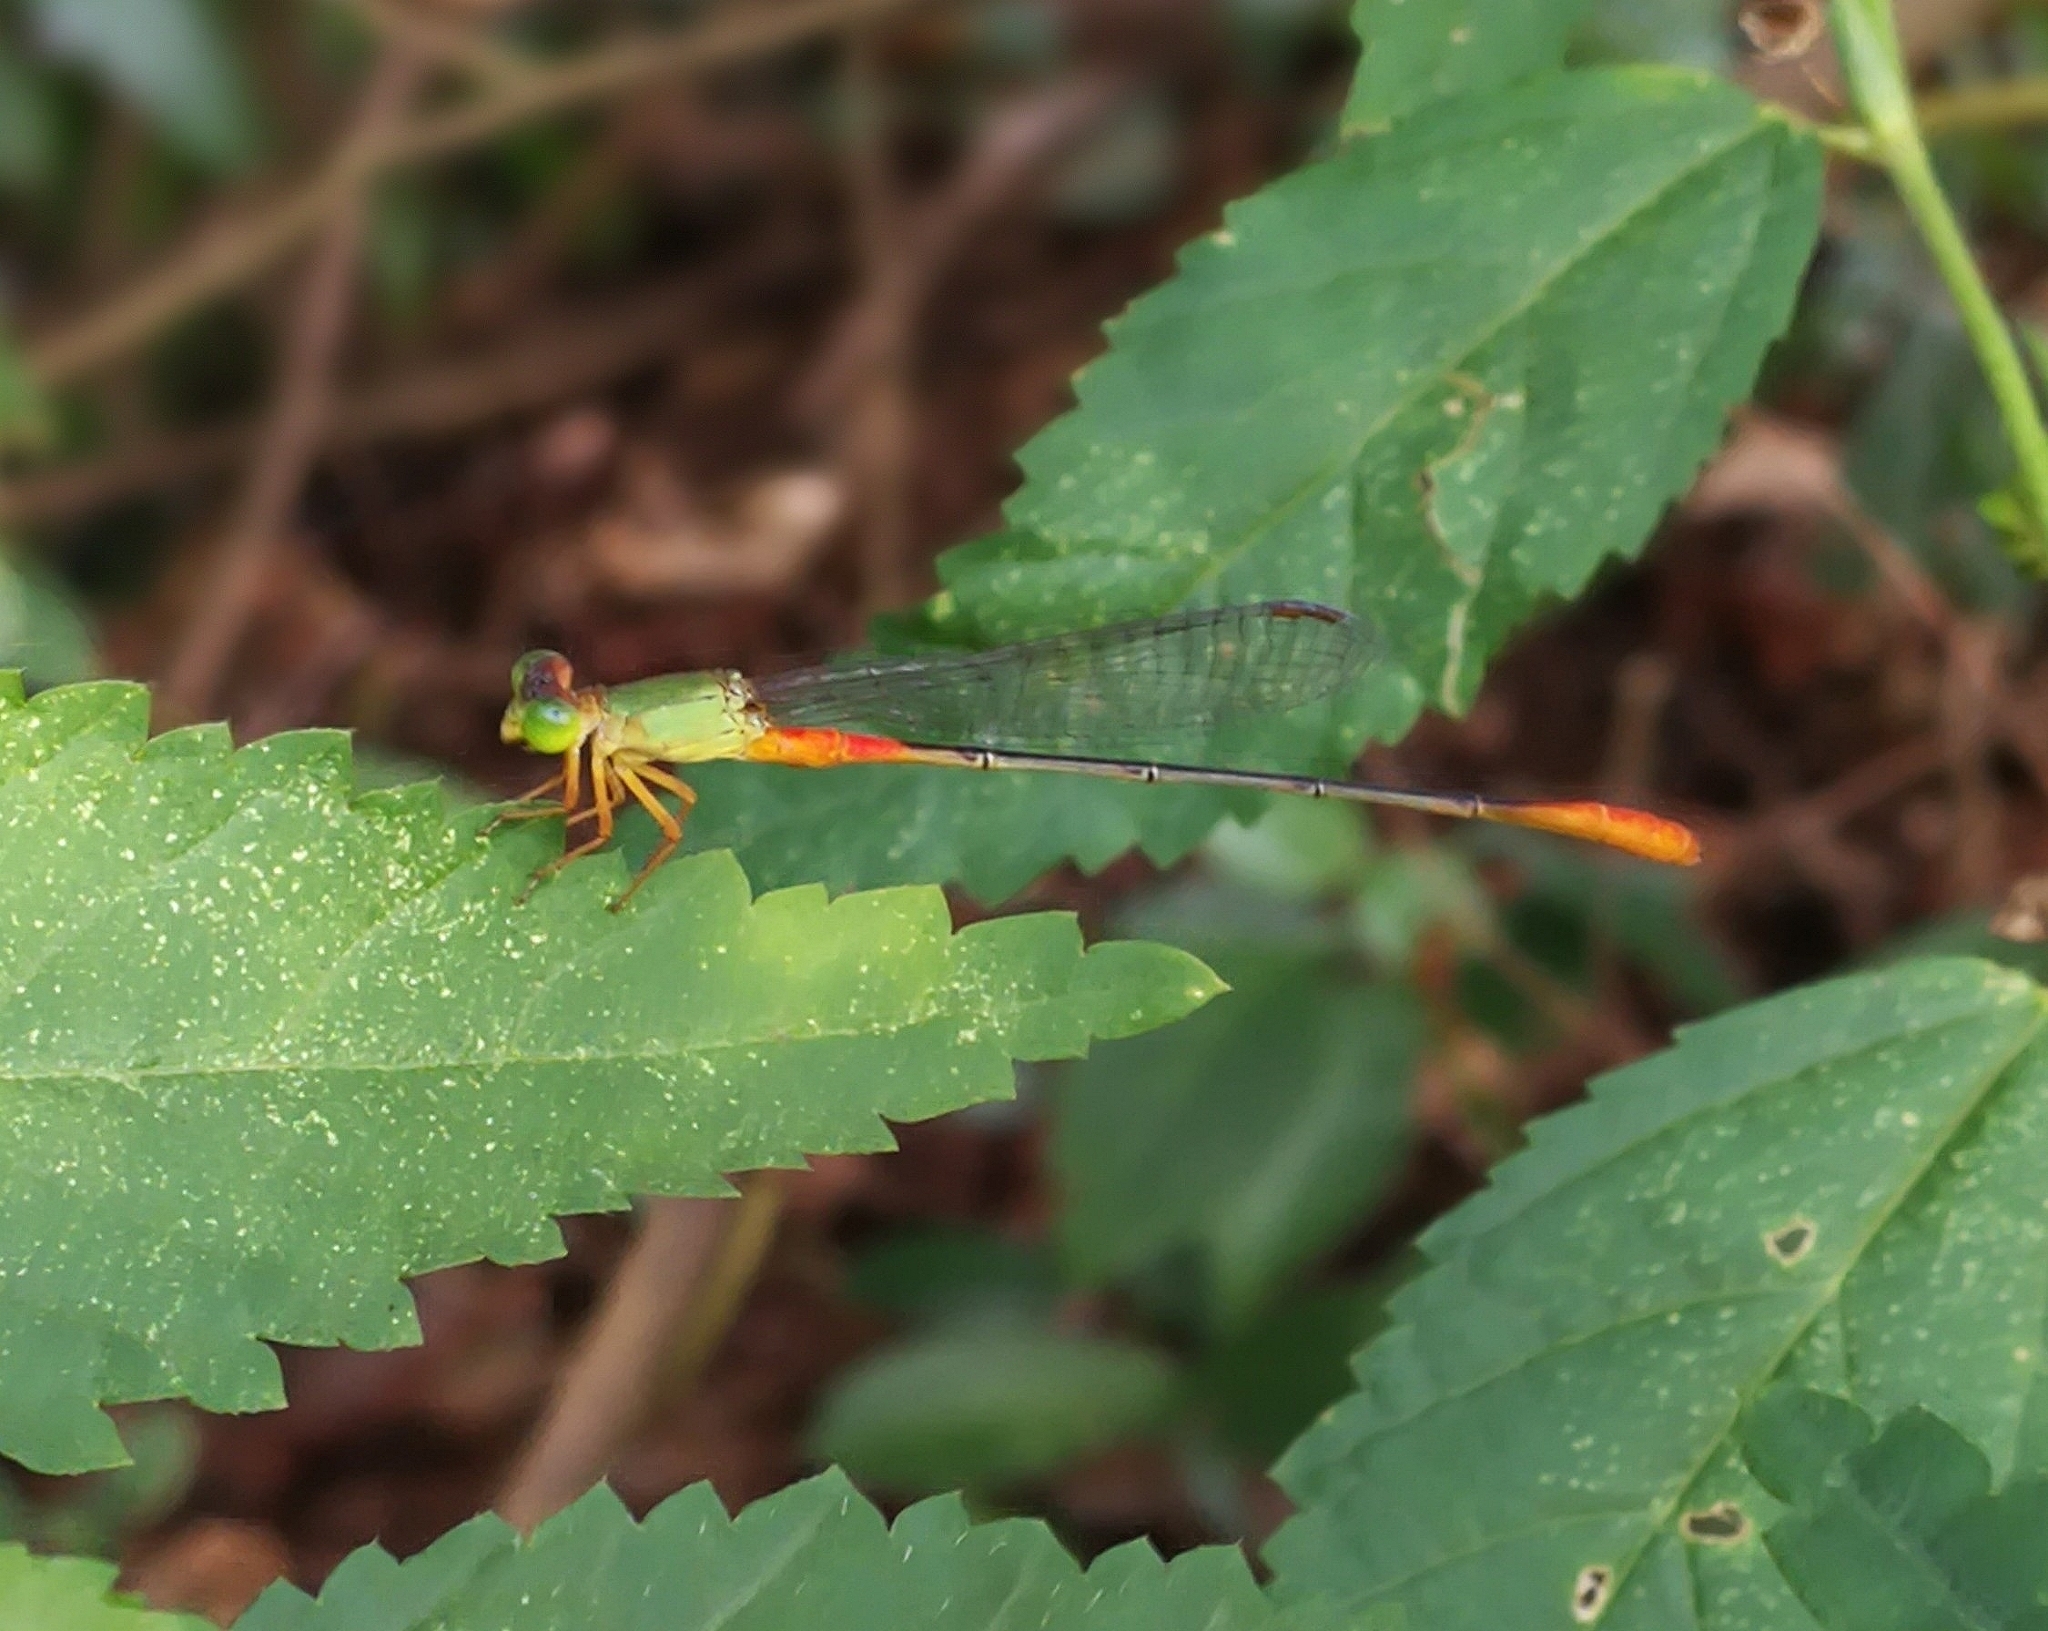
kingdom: Animalia
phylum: Arthropoda
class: Insecta
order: Odonata
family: Coenagrionidae
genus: Ceriagrion
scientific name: Ceriagrion cerinorubellum
